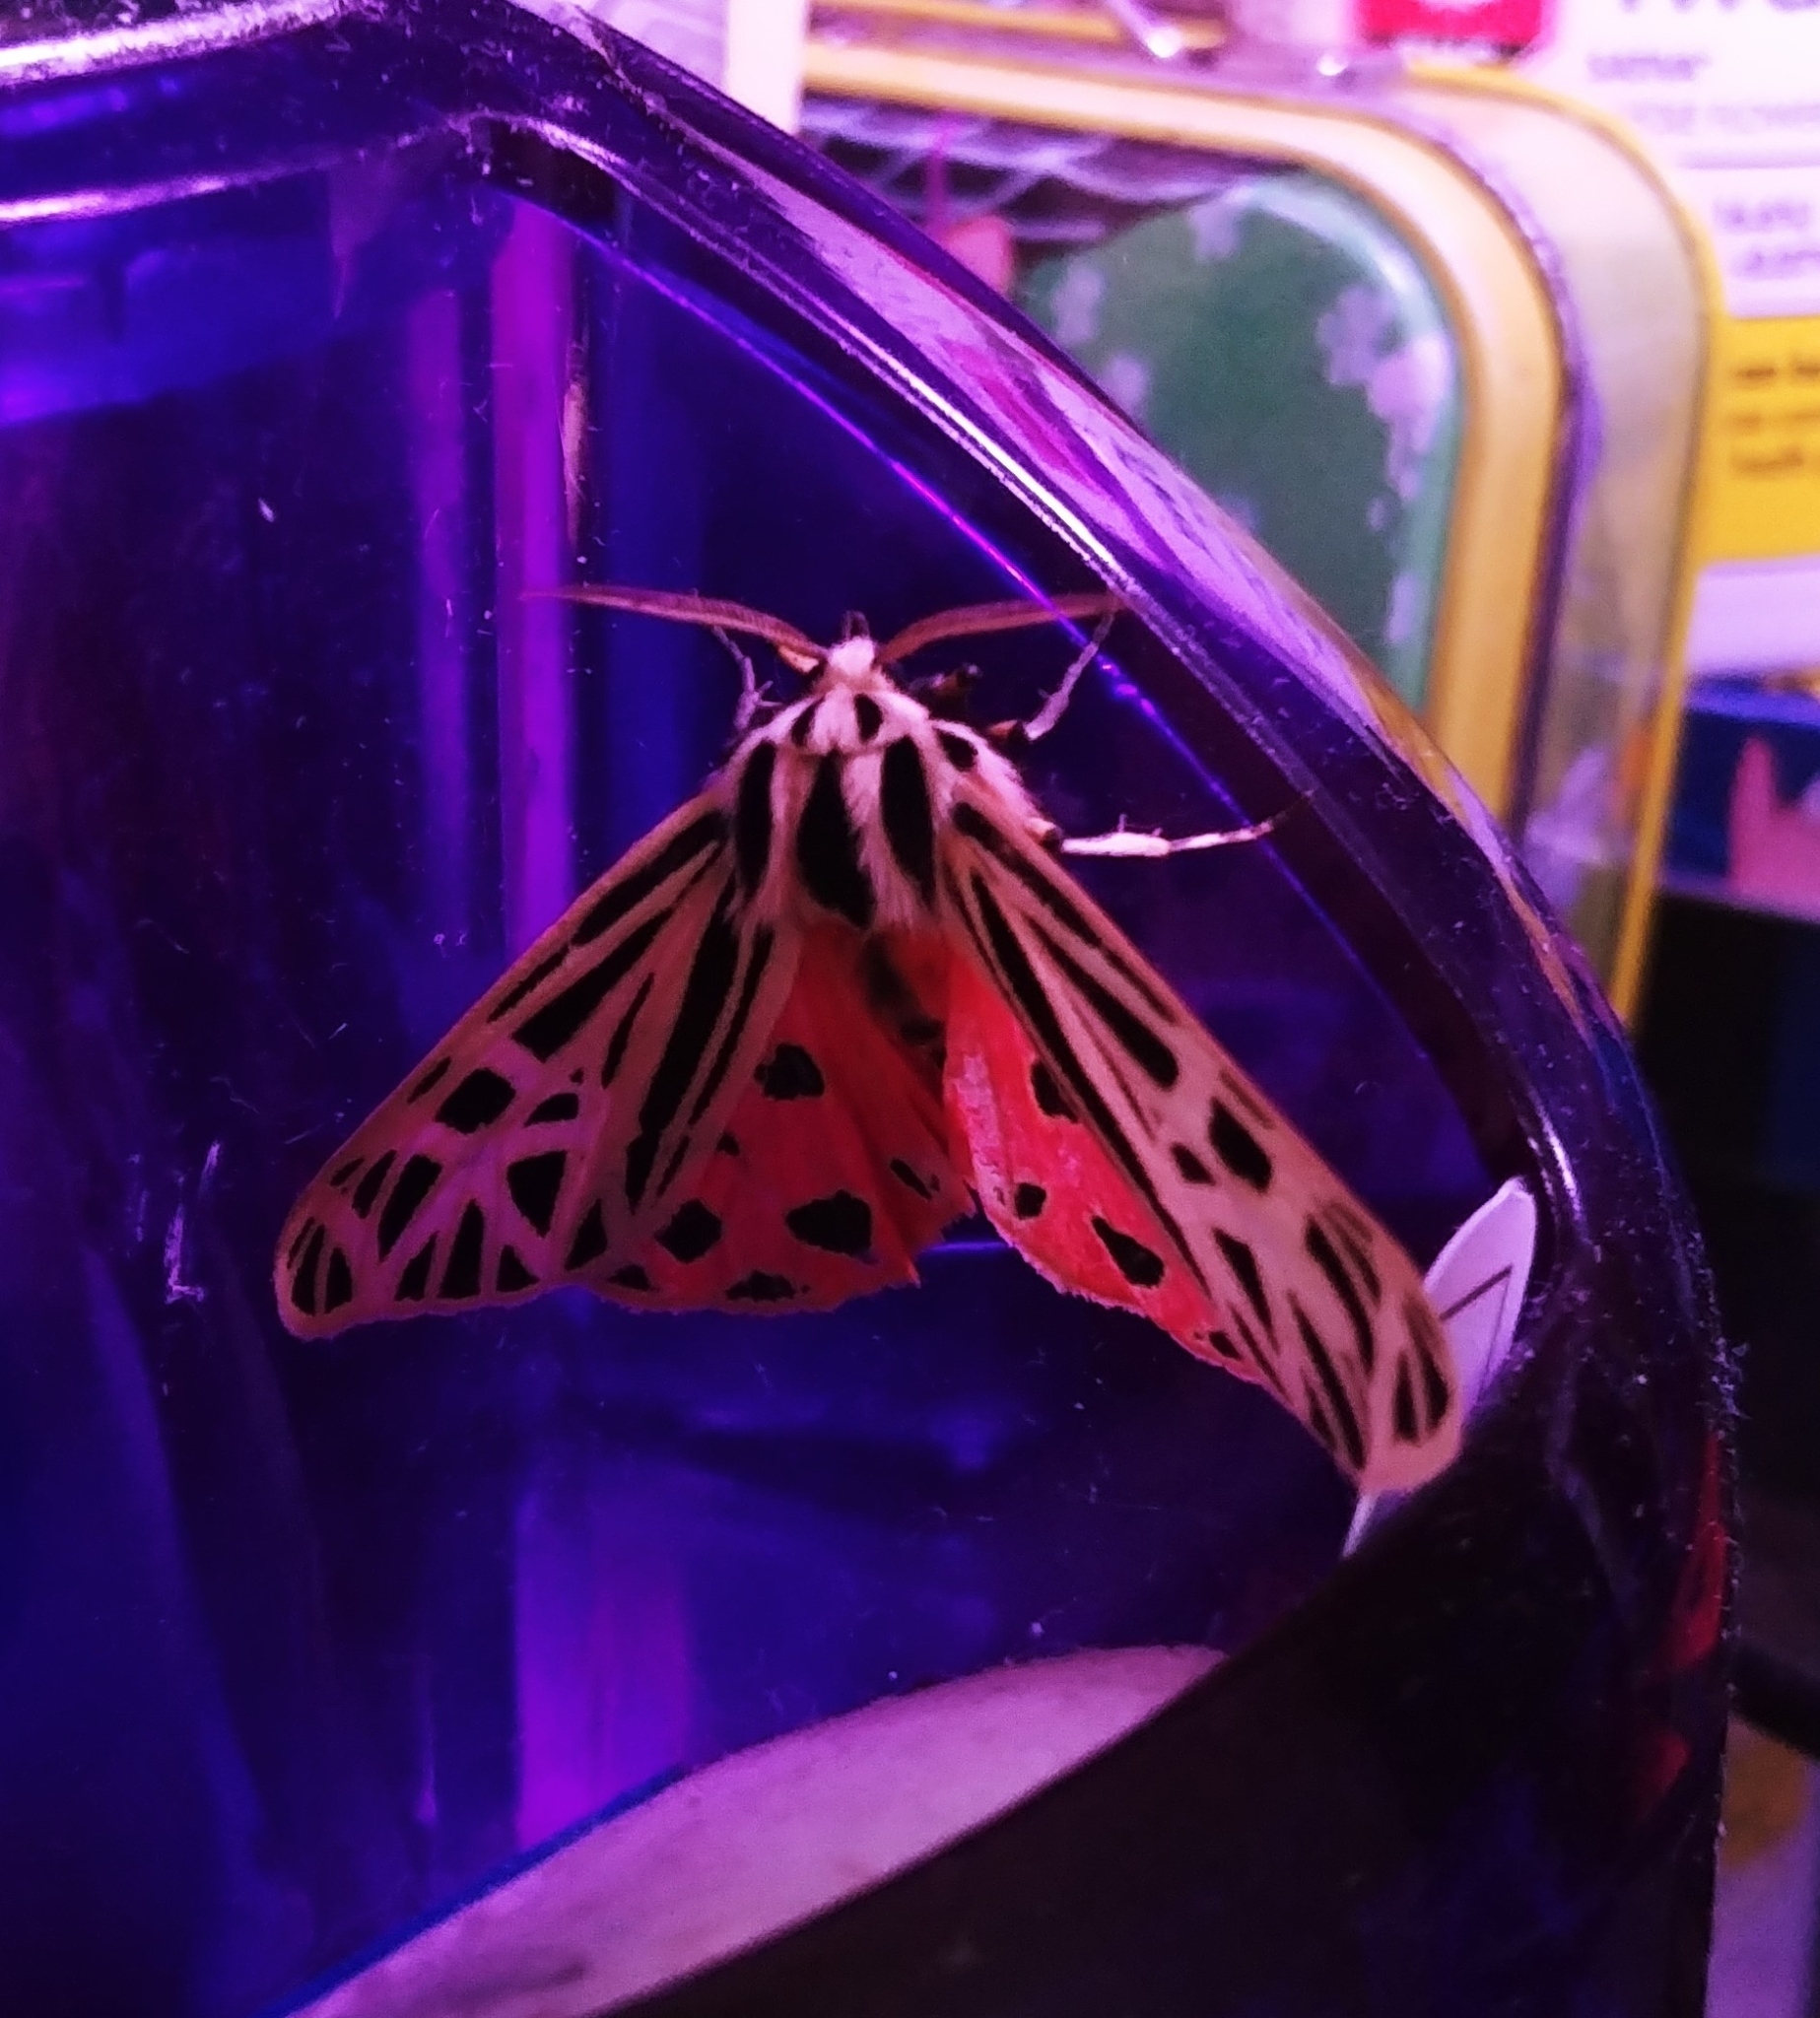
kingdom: Animalia
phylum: Arthropoda
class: Insecta
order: Lepidoptera
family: Erebidae
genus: Grammia
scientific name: Grammia virgo
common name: Virgin tiger moth
